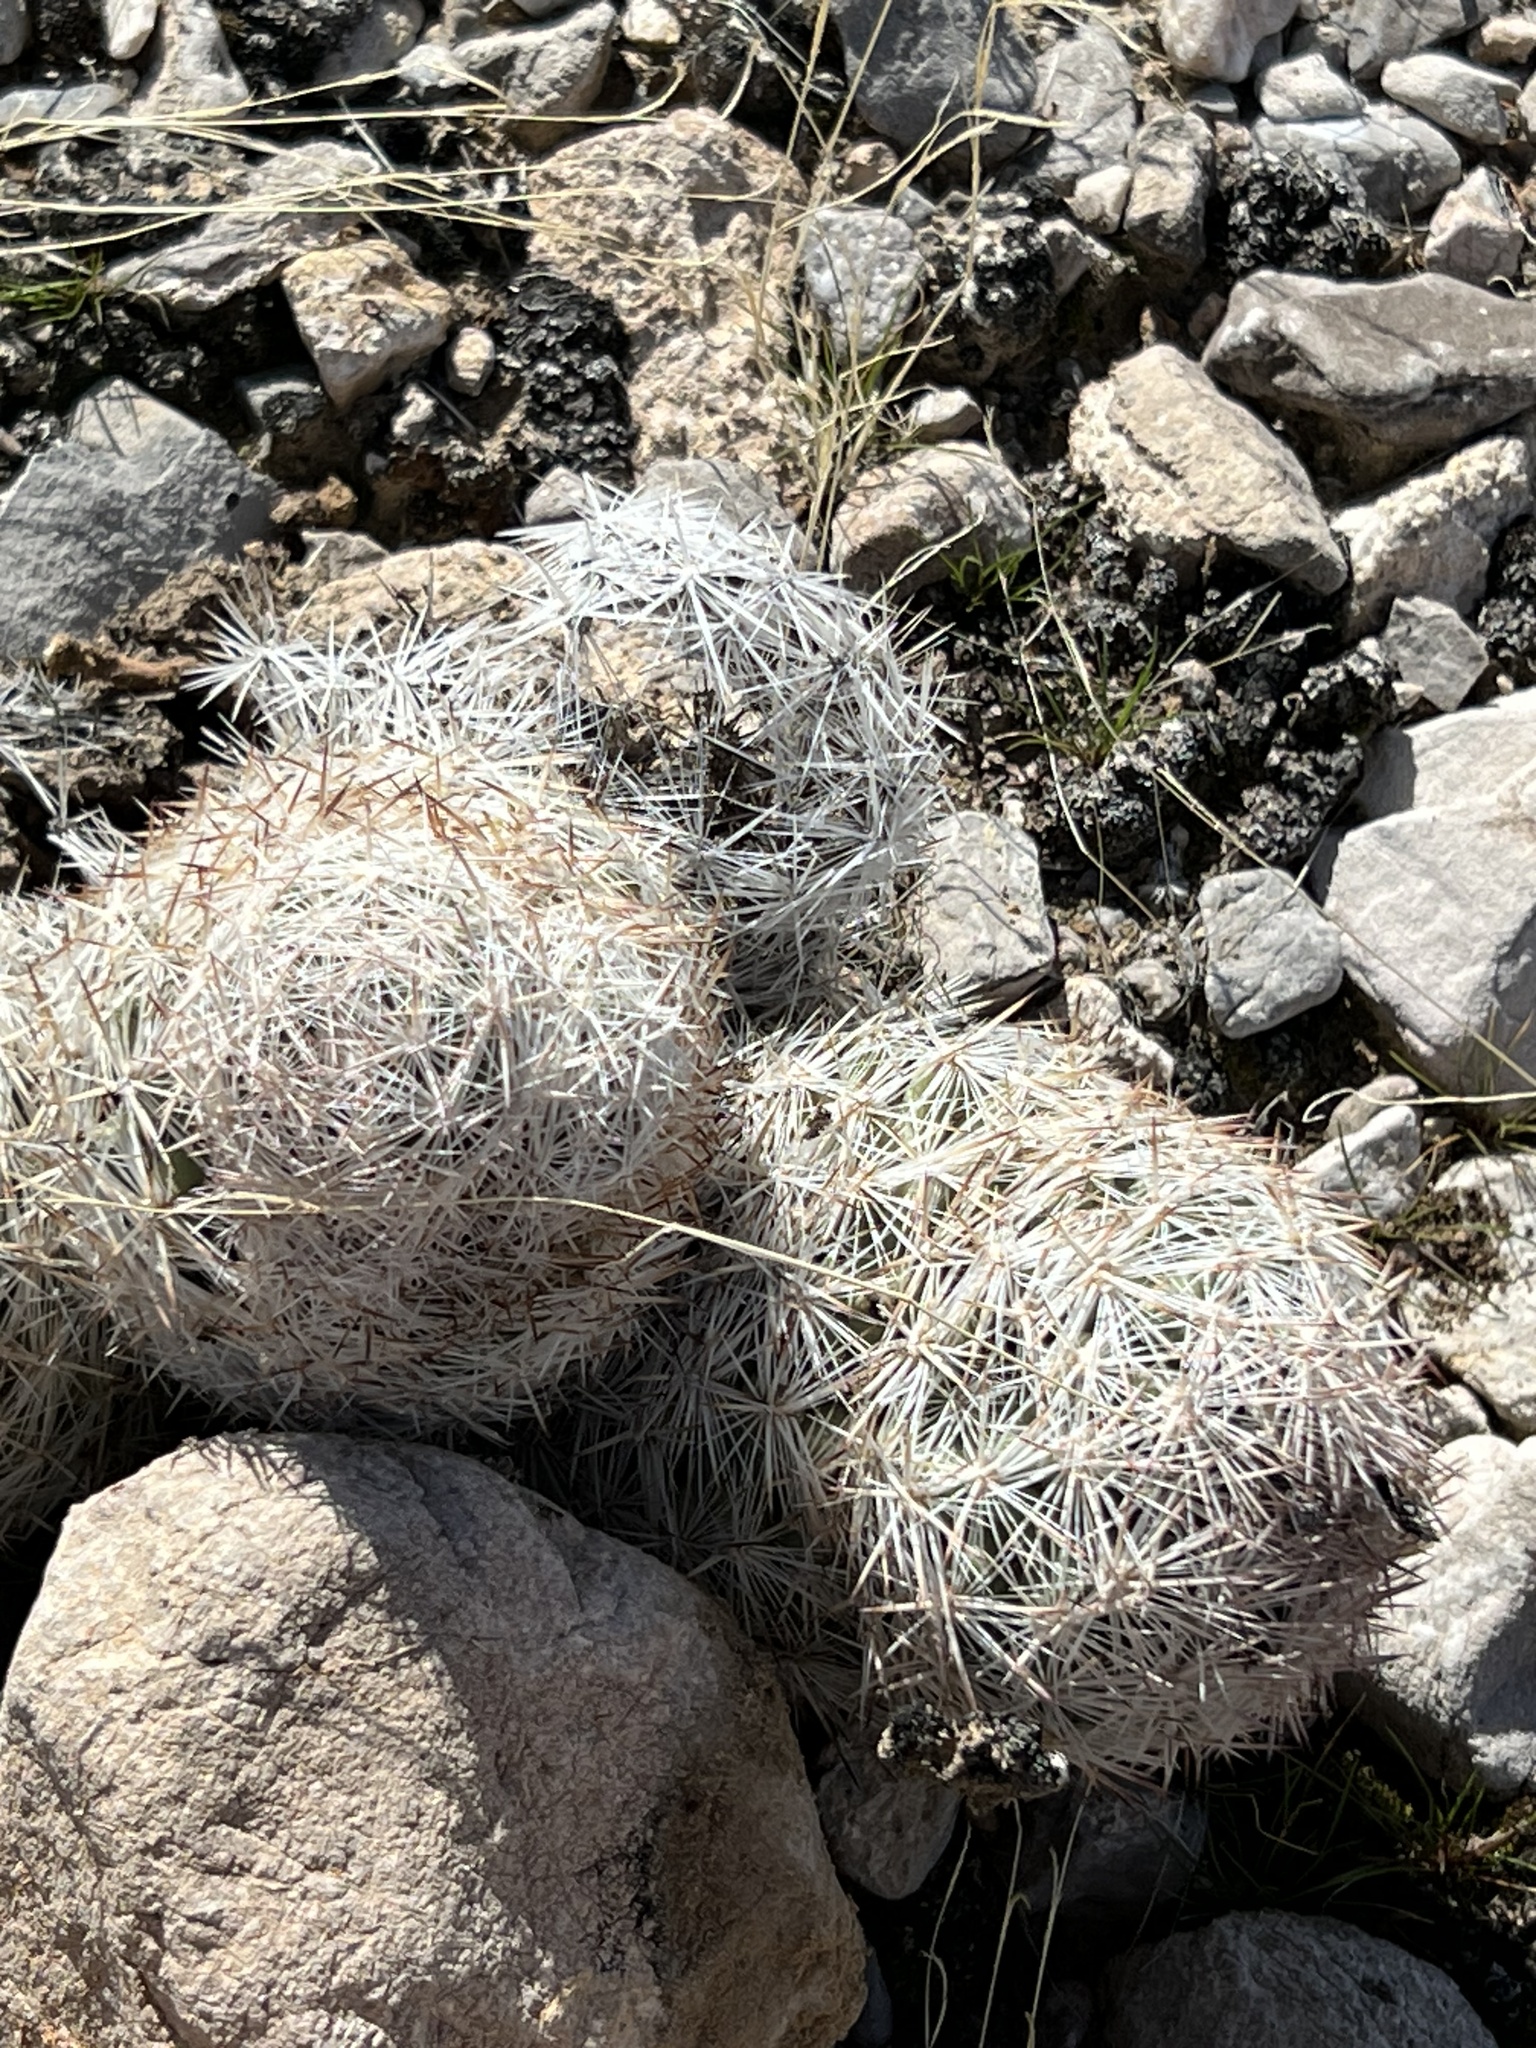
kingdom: Plantae
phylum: Tracheophyta
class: Magnoliopsida
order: Caryophyllales
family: Cactaceae
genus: Pelecyphora
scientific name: Pelecyphora dasyacantha
